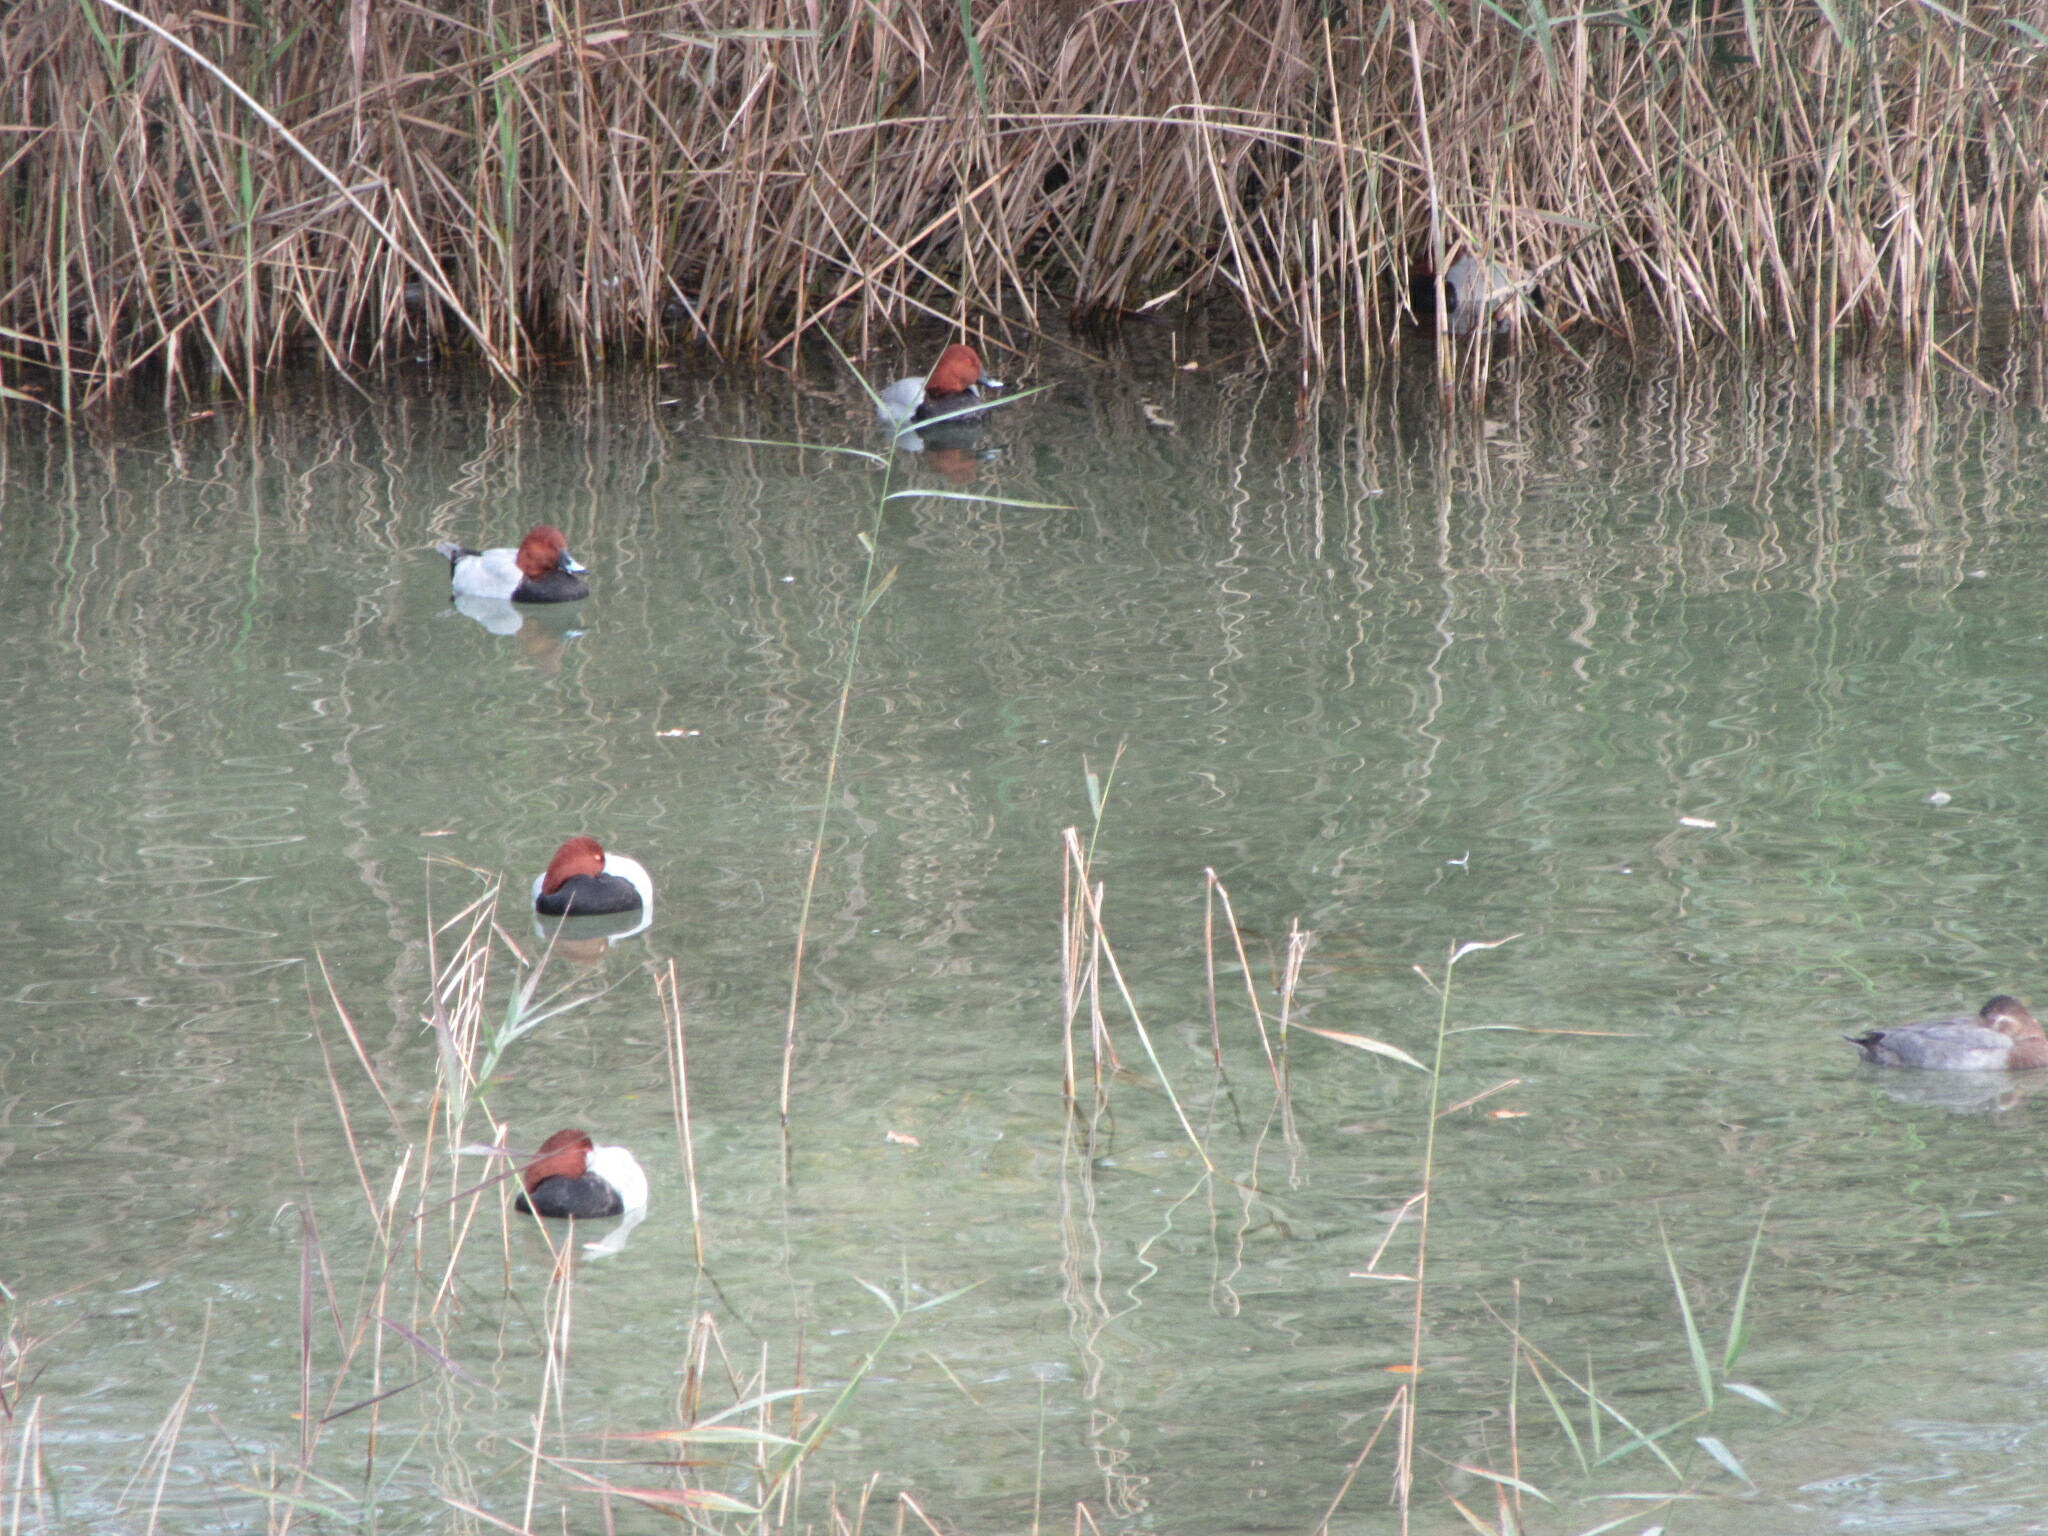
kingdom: Animalia
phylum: Chordata
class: Aves
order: Anseriformes
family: Anatidae
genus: Aythya
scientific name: Aythya ferina
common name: Common pochard
